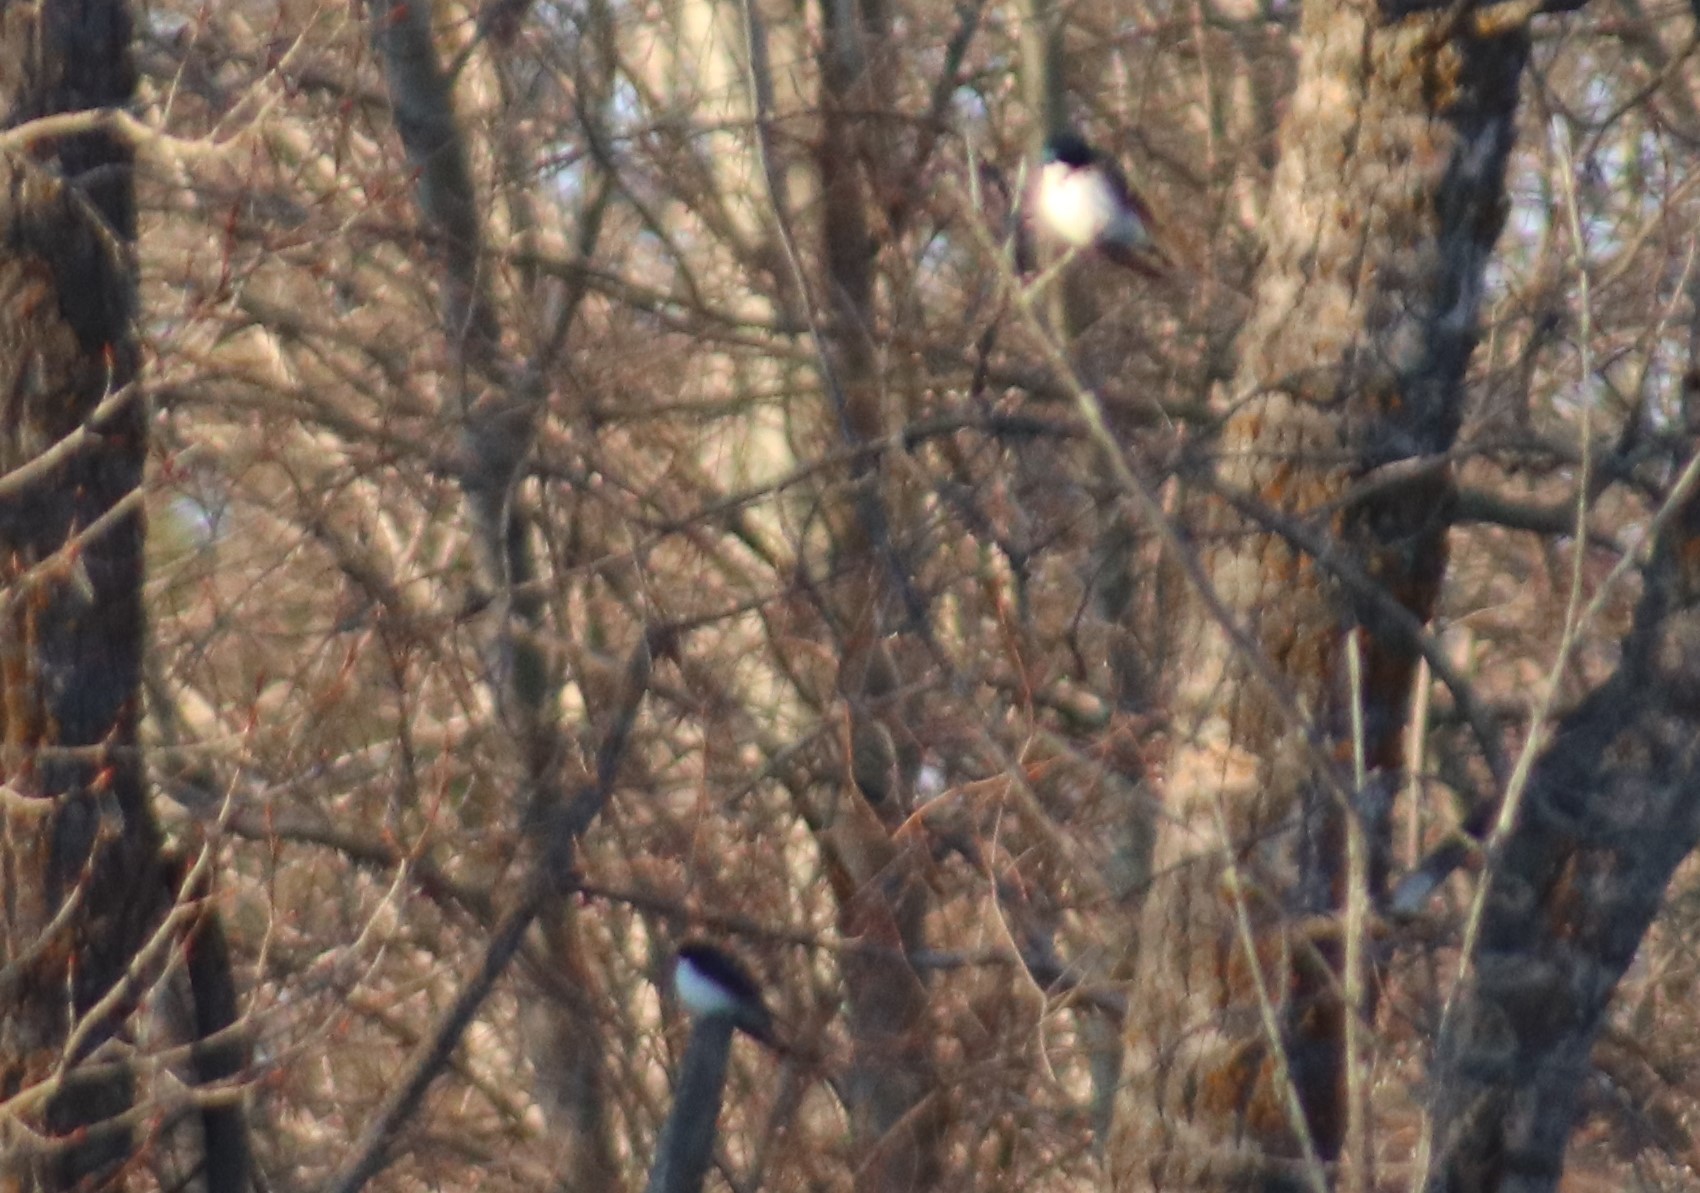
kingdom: Animalia
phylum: Chordata
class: Aves
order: Passeriformes
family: Hirundinidae
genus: Tachycineta
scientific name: Tachycineta bicolor
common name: Tree swallow
